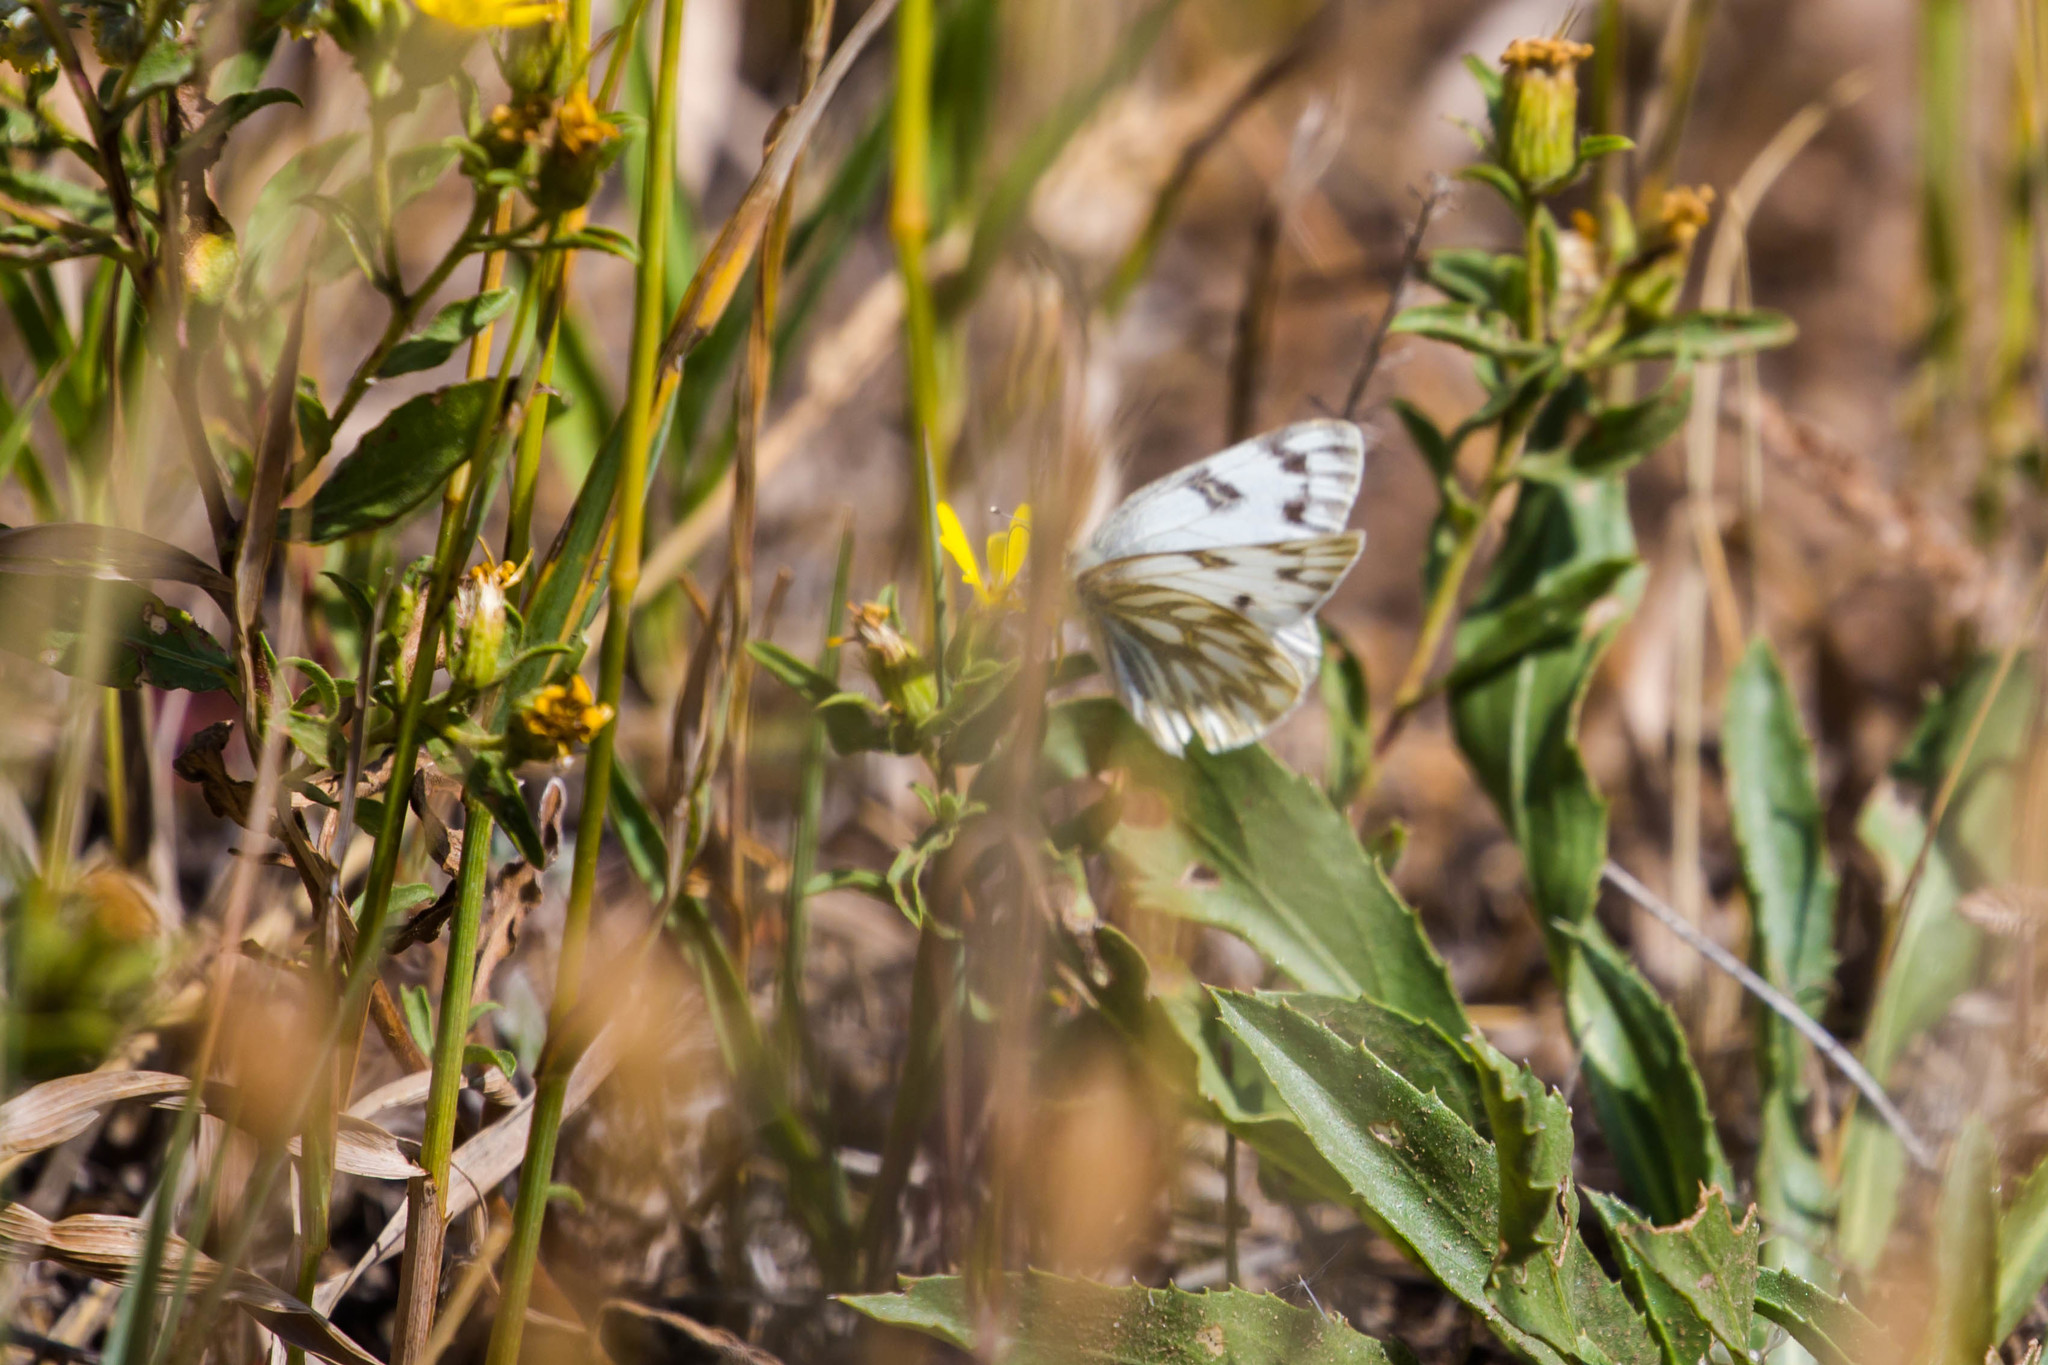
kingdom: Animalia
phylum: Arthropoda
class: Insecta
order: Lepidoptera
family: Pieridae
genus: Pontia
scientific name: Pontia occidentalis
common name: Western white
